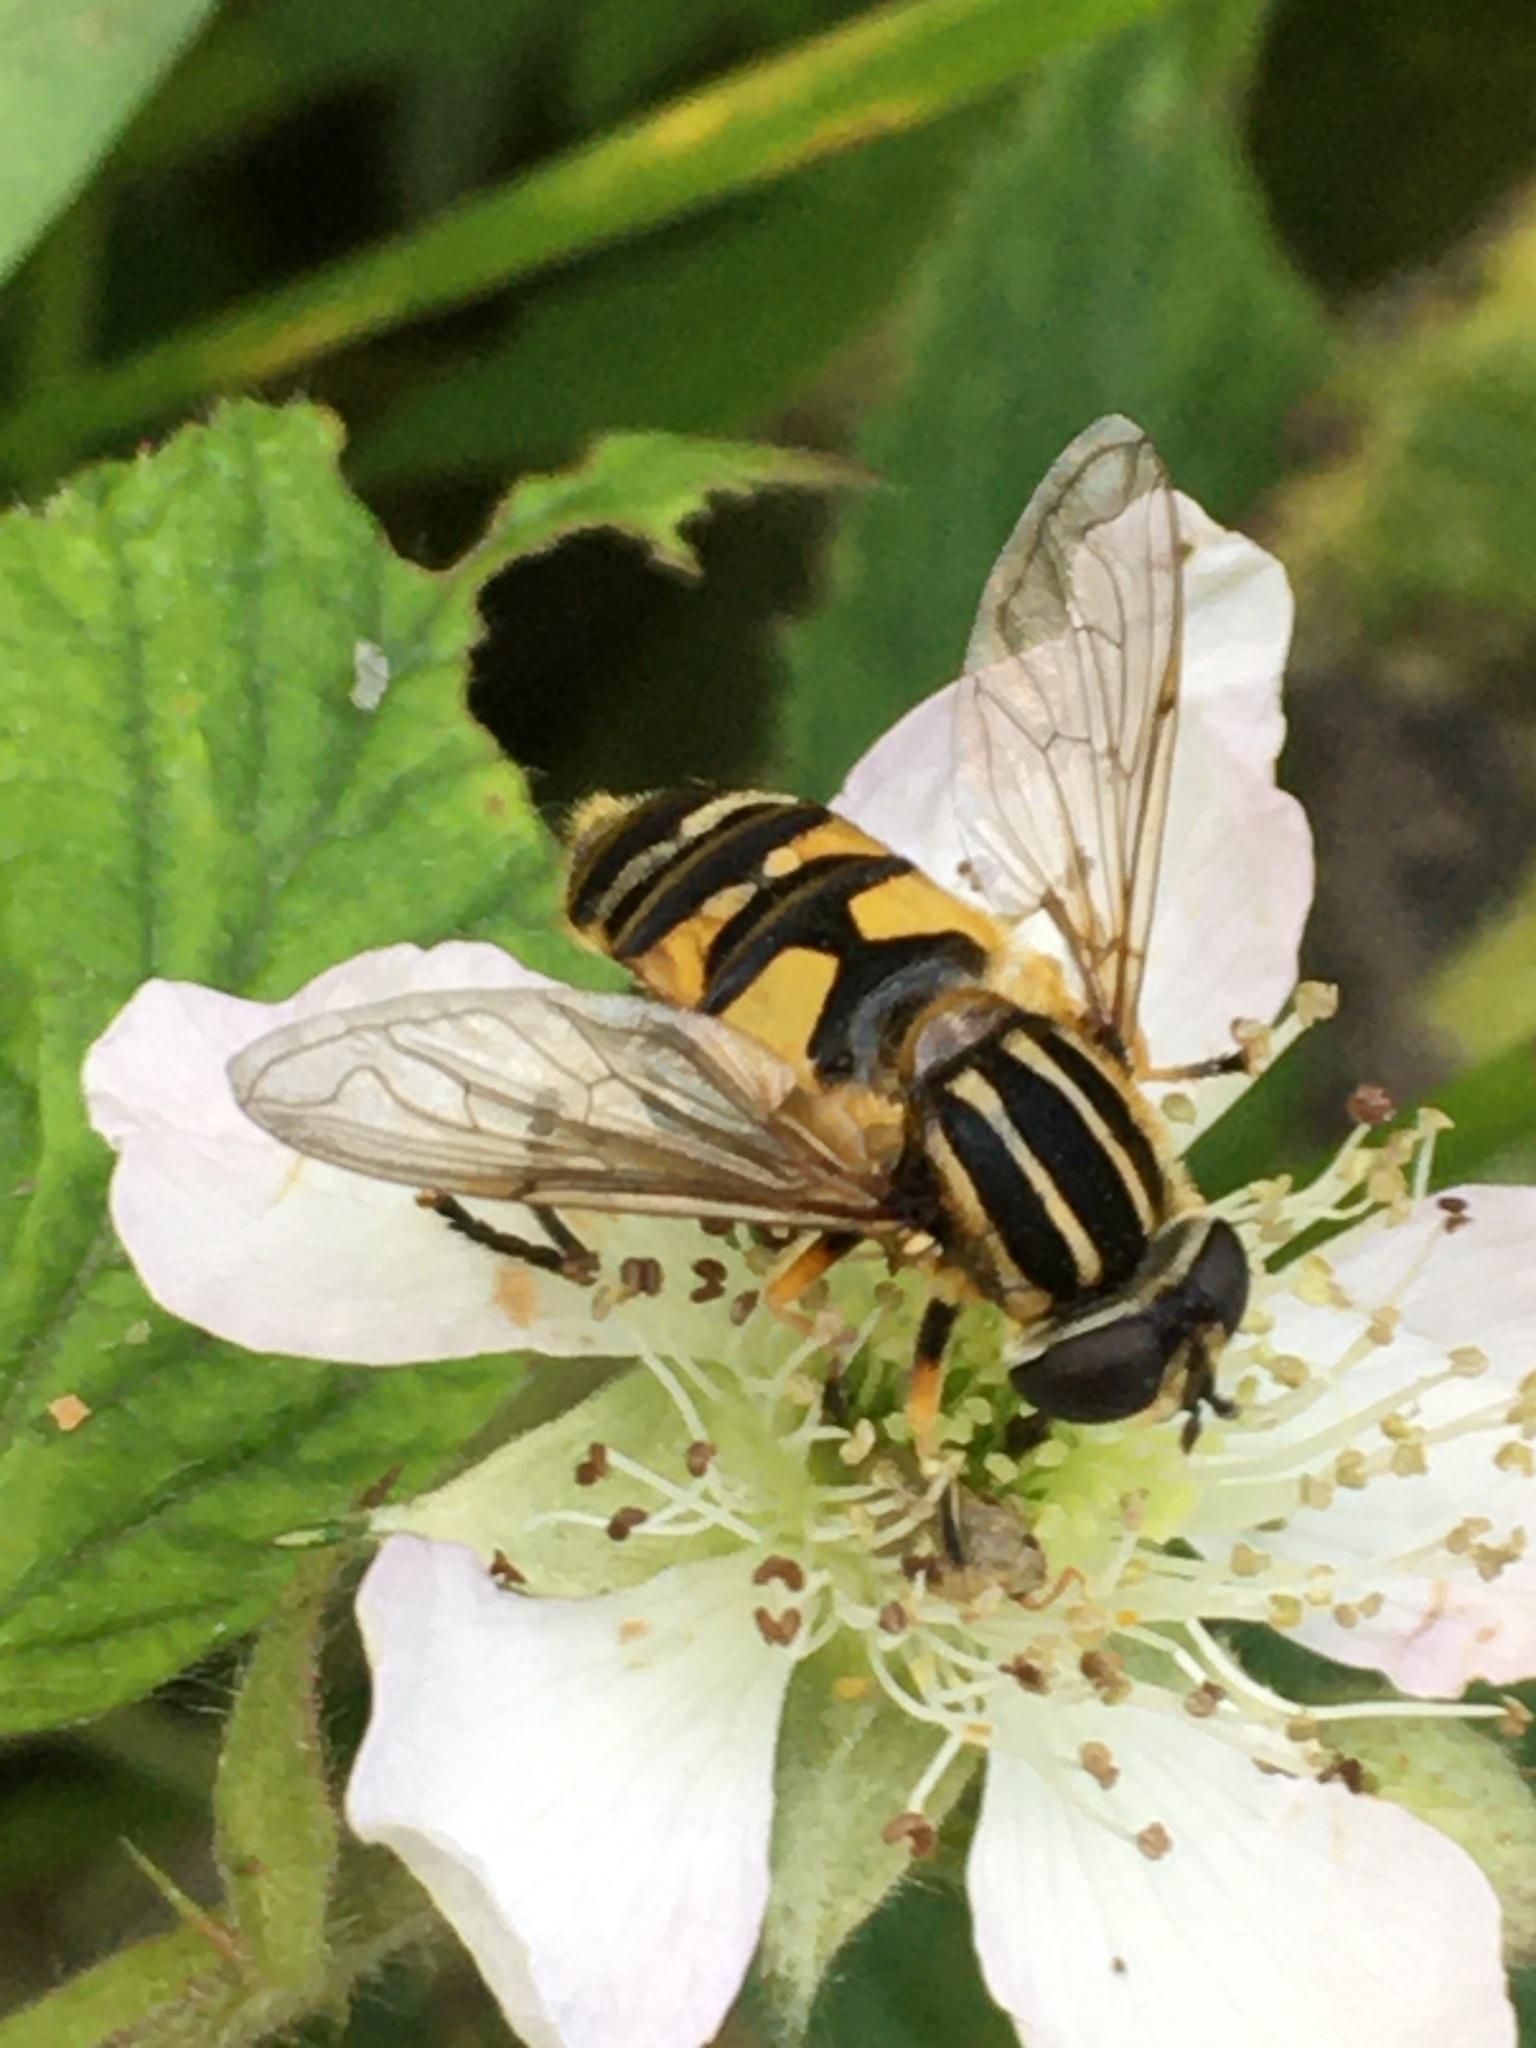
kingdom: Animalia
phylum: Arthropoda
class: Insecta
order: Diptera
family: Syrphidae
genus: Helophilus
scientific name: Helophilus pendulus
